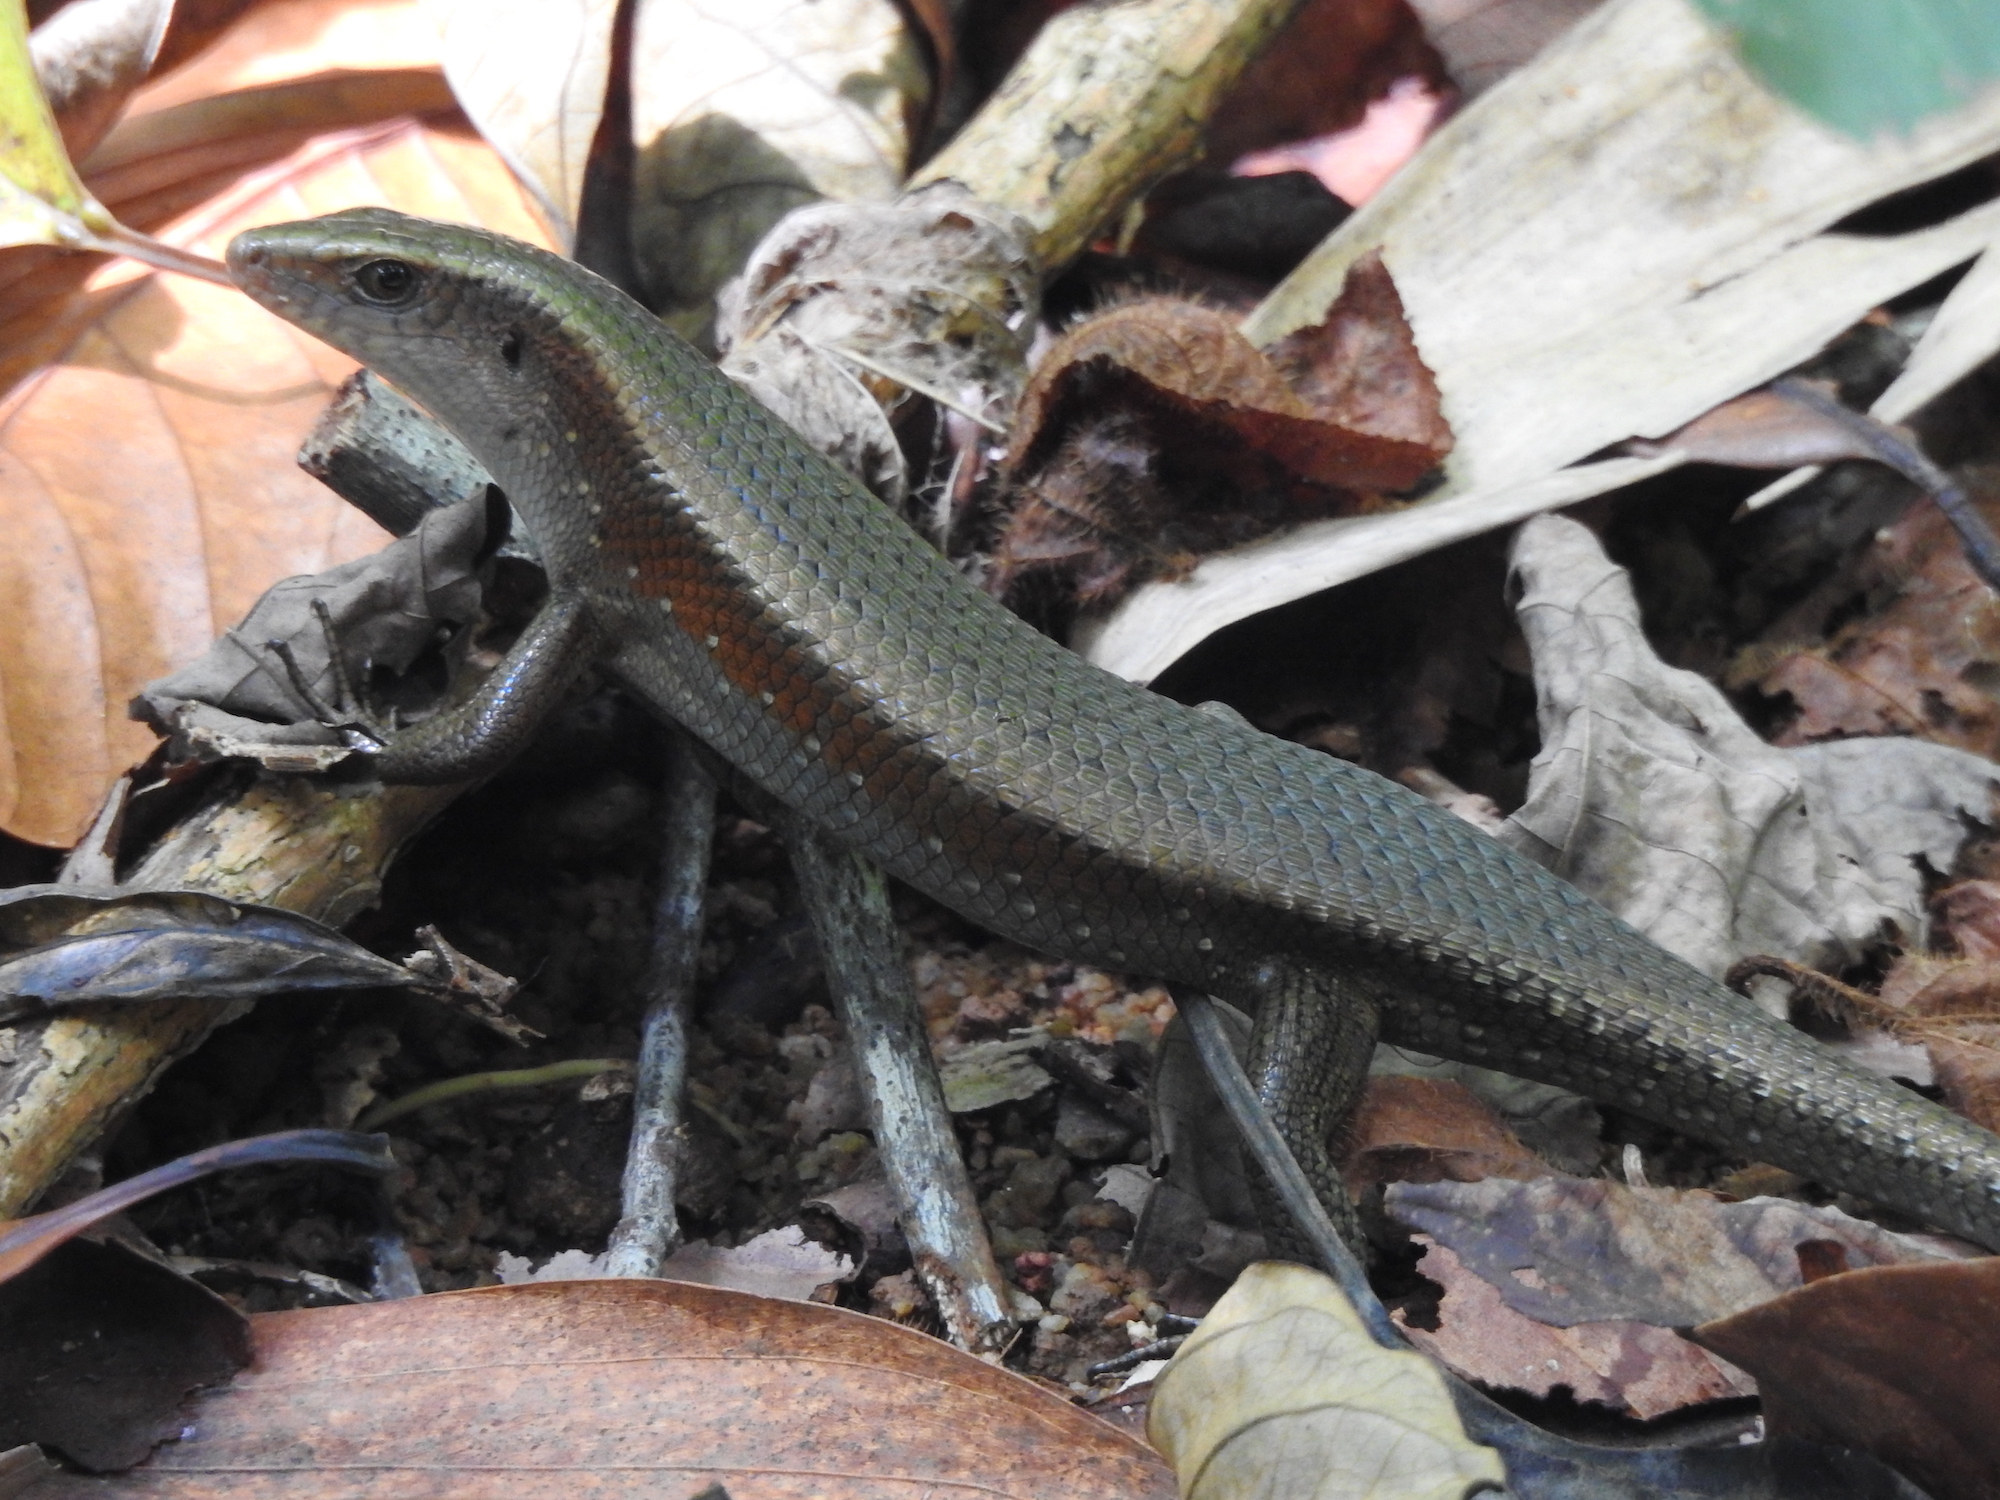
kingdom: Animalia
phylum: Chordata
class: Squamata
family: Scincidae
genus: Eutropis
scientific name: Eutropis multifasciata
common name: Common mabuya
